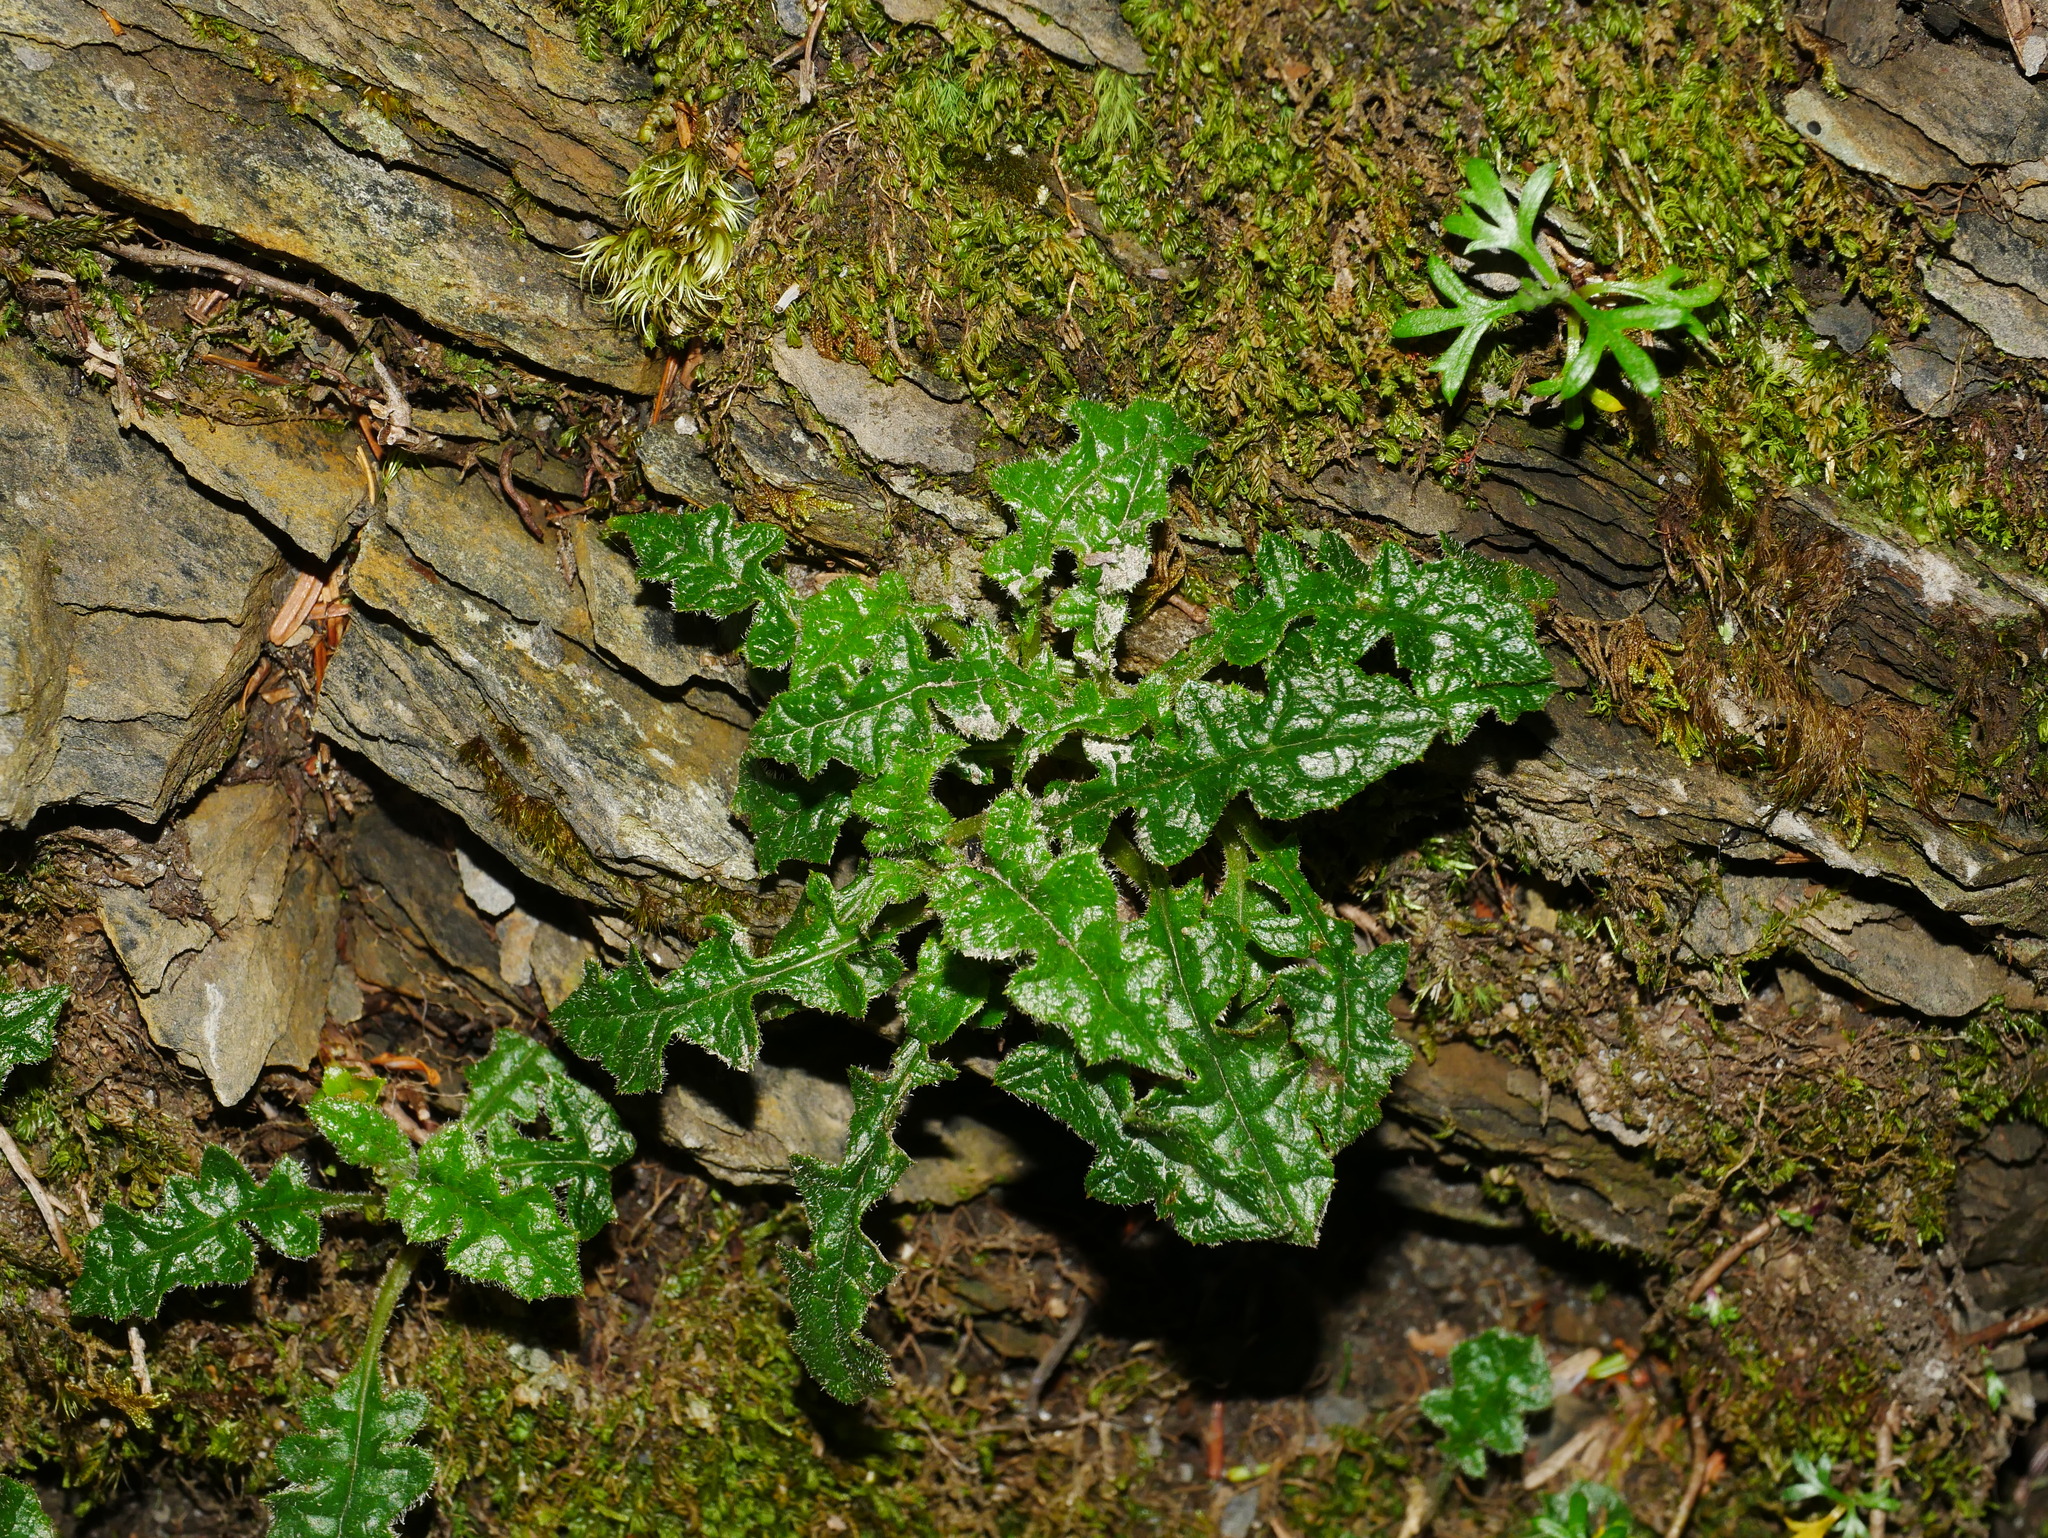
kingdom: Plantae
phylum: Tracheophyta
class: Magnoliopsida
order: Asterales
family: Asteraceae
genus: Saussurea
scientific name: Saussurea kanzanensis
